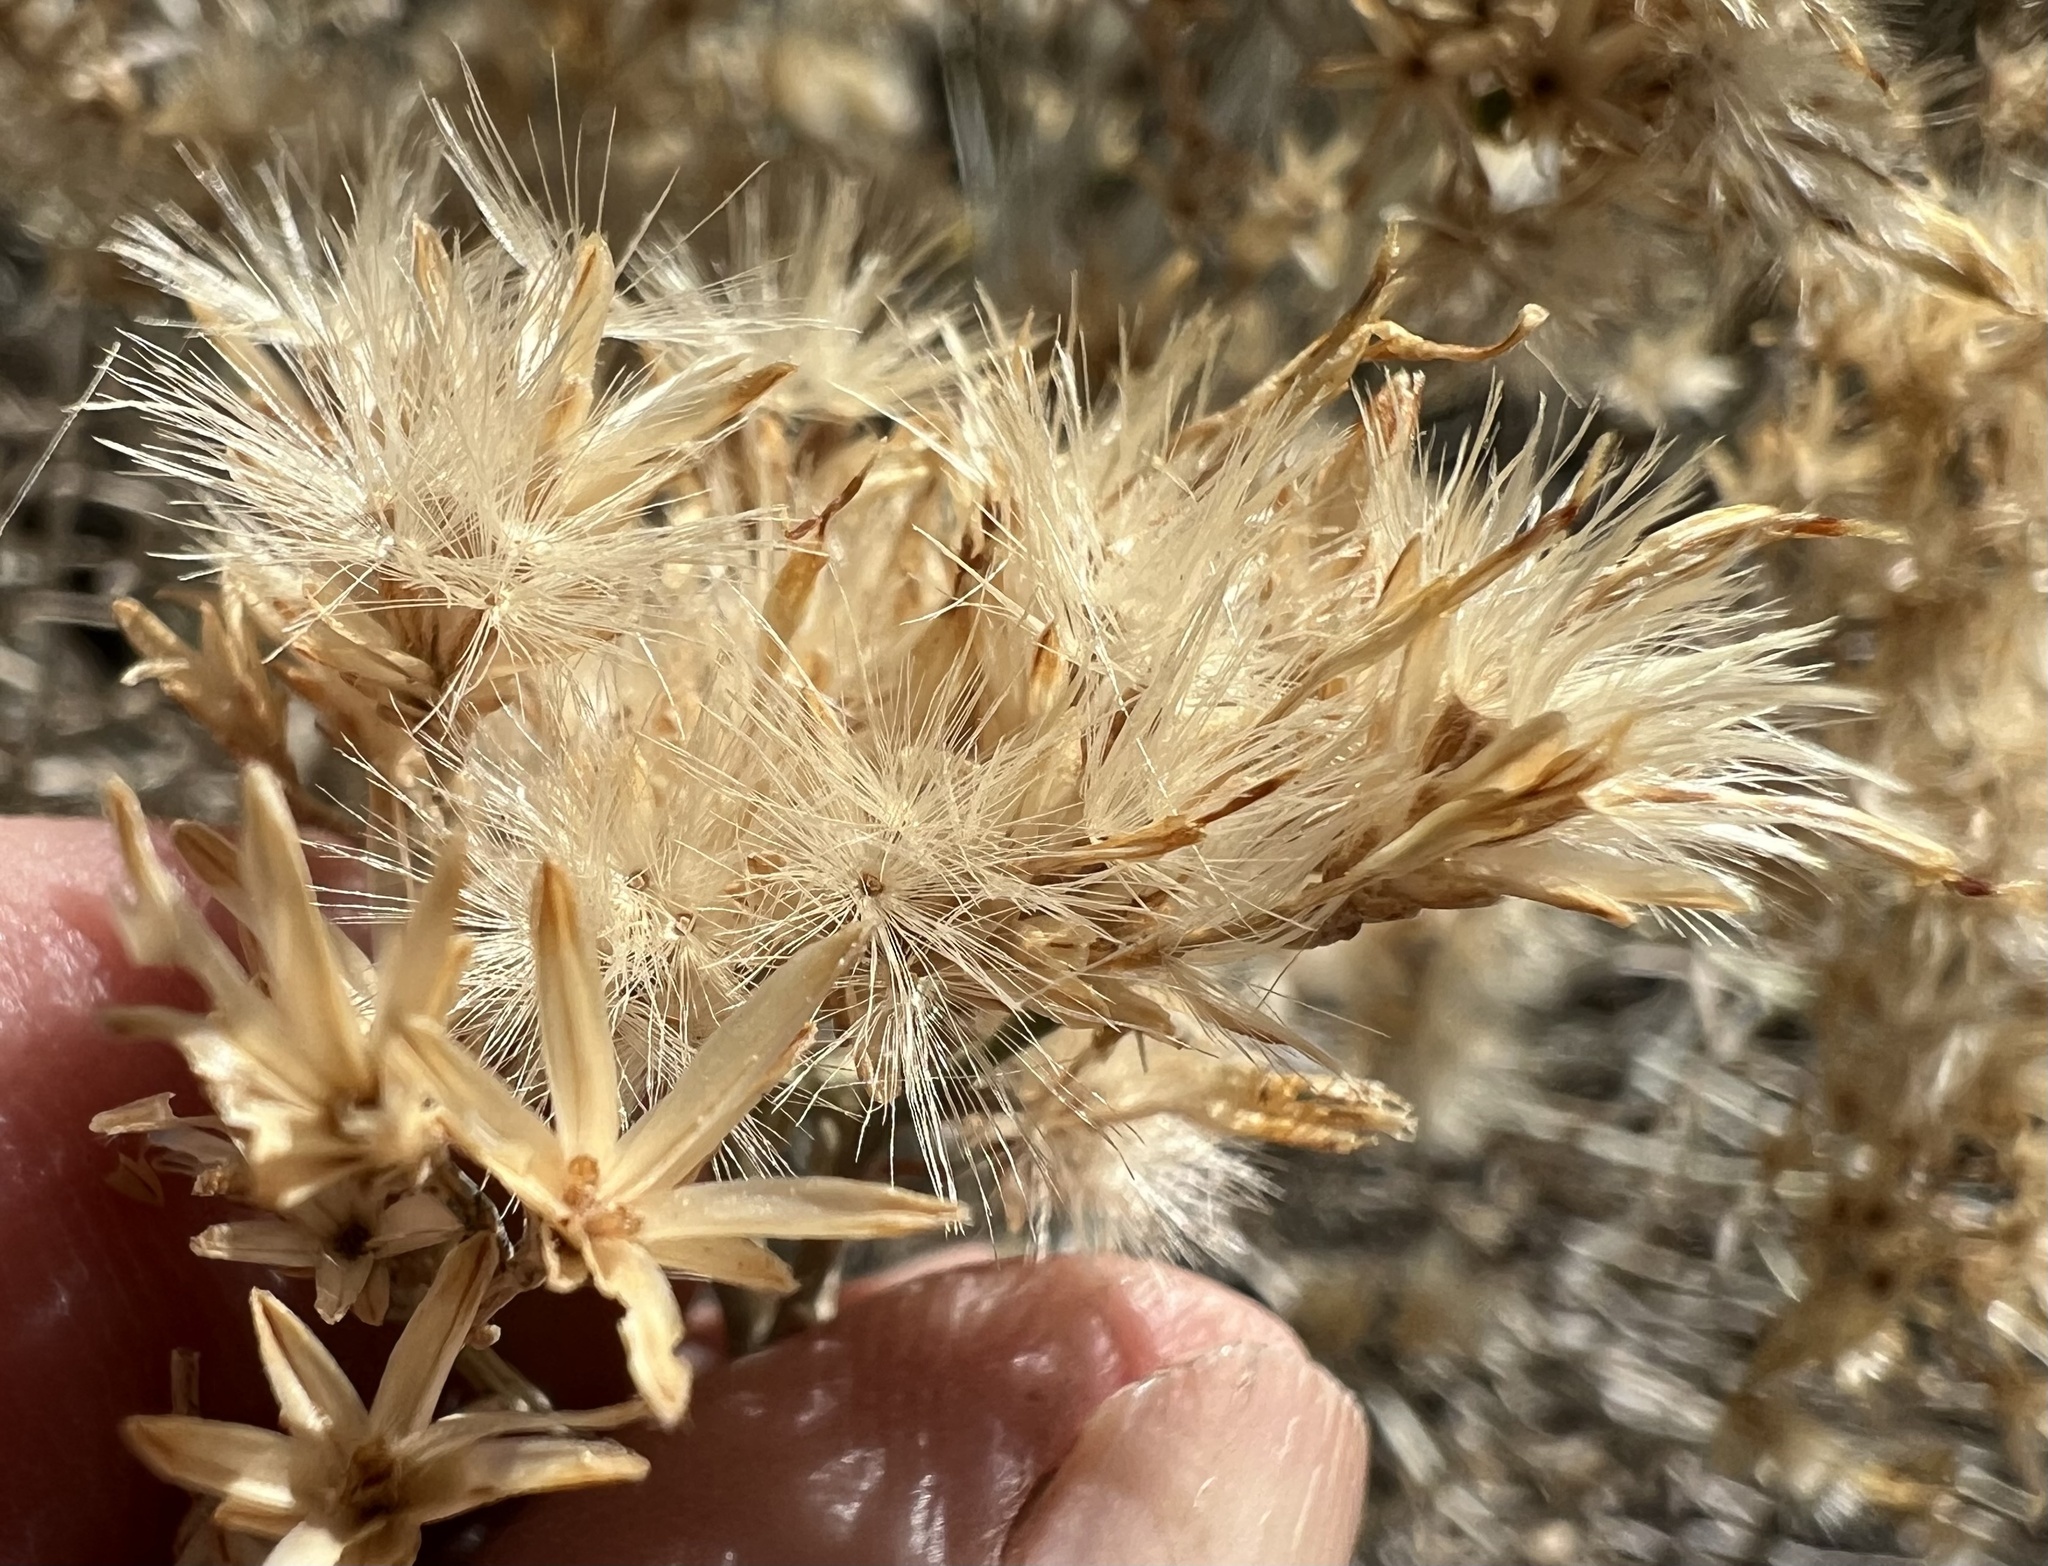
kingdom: Plantae
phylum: Tracheophyta
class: Magnoliopsida
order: Asterales
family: Asteraceae
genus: Ericameria
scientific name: Ericameria nauseosa
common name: Rubber rabbitbrush
